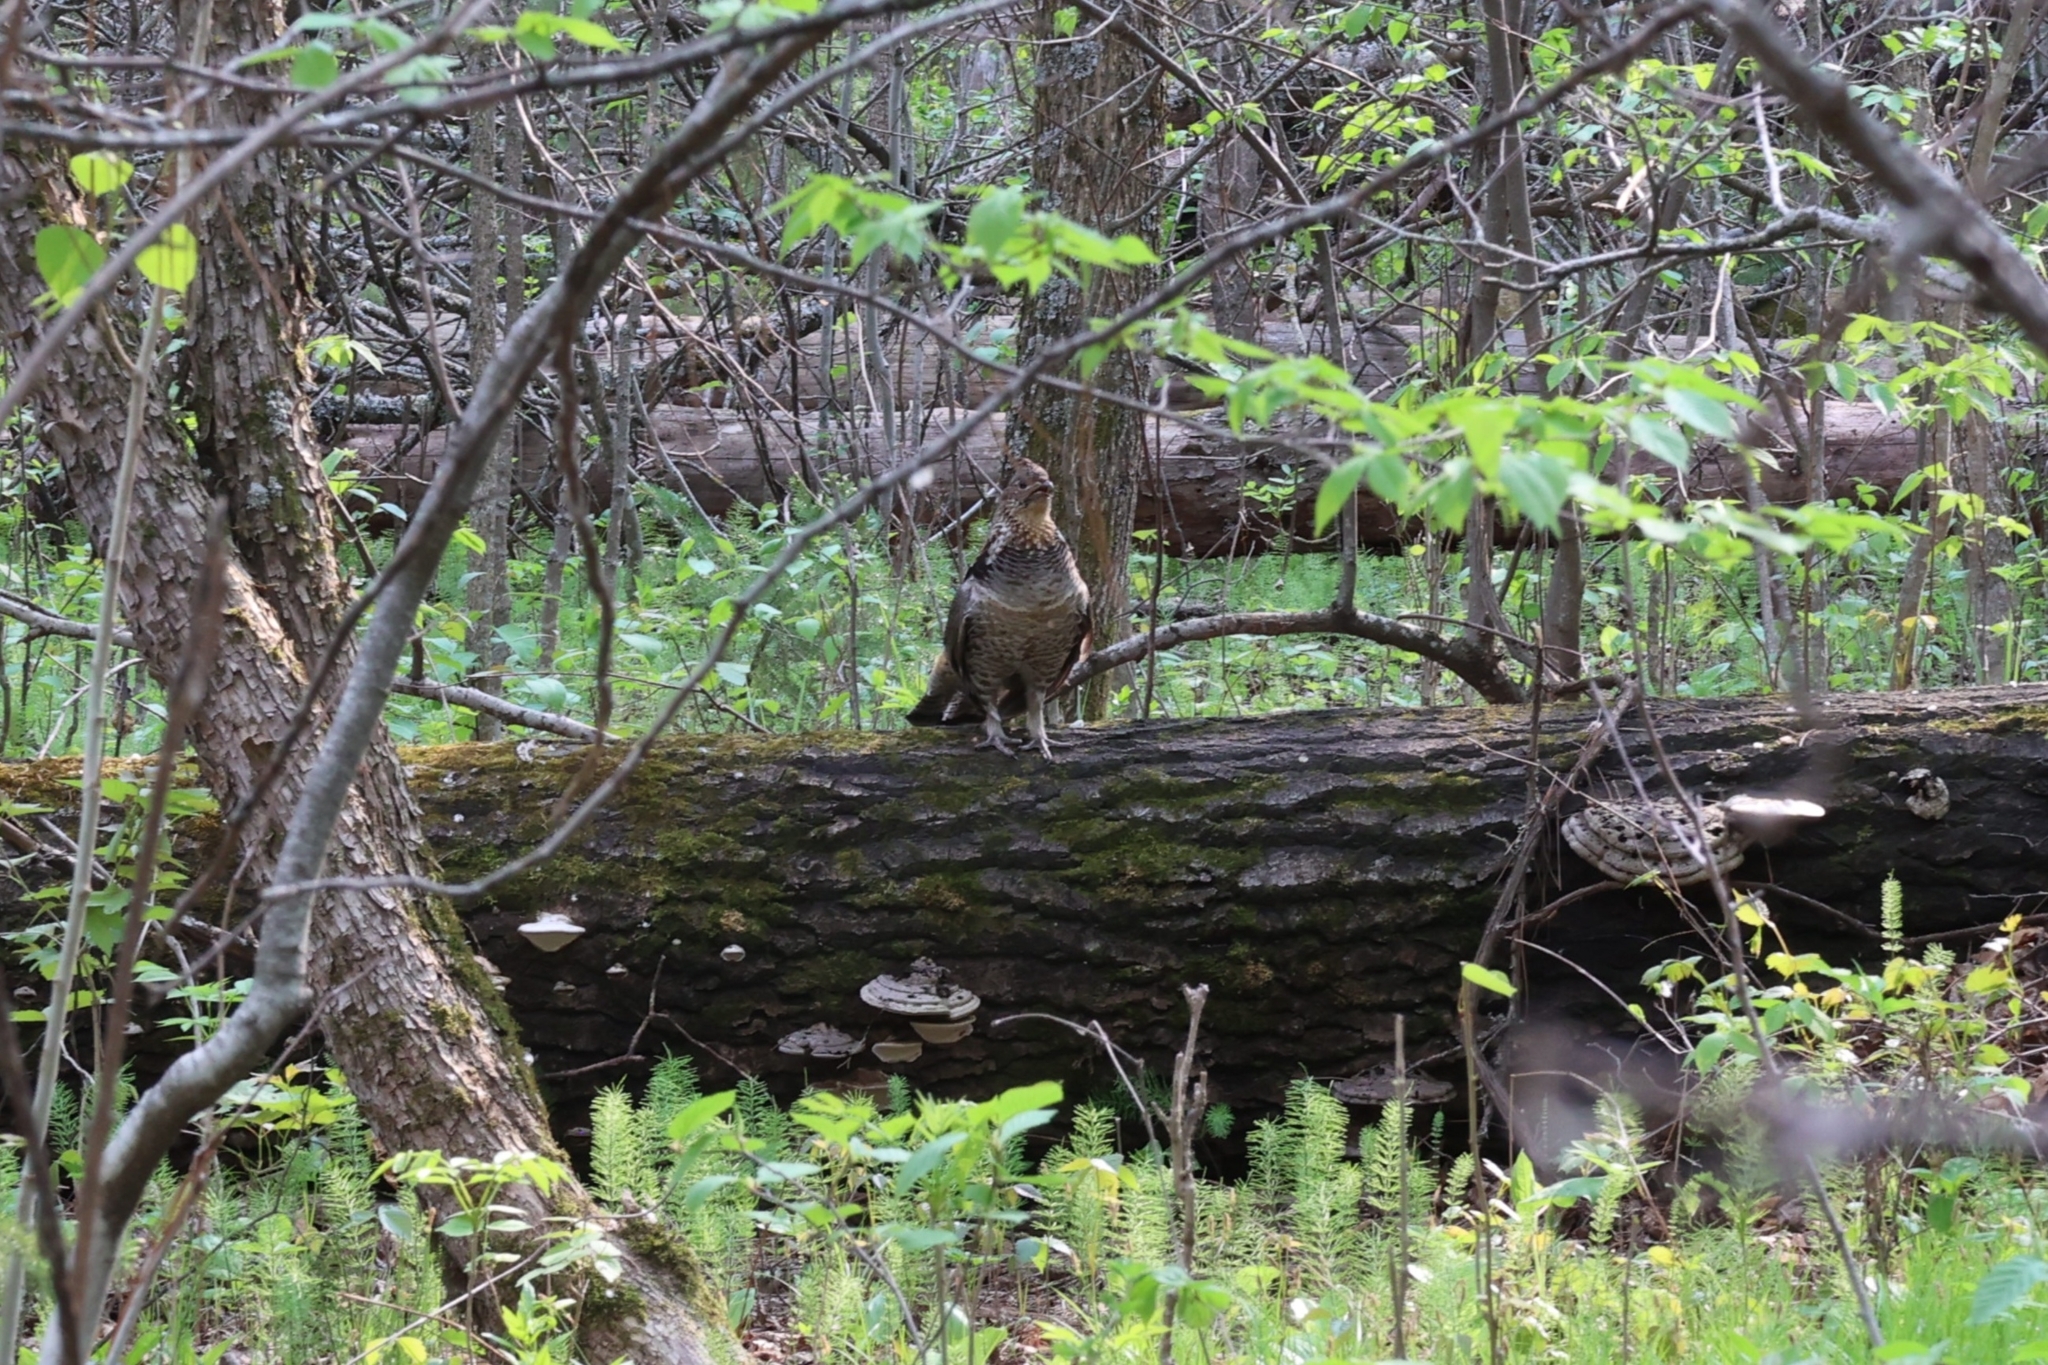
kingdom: Animalia
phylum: Chordata
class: Aves
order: Galliformes
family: Phasianidae
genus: Bonasa
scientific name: Bonasa umbellus
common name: Ruffed grouse
